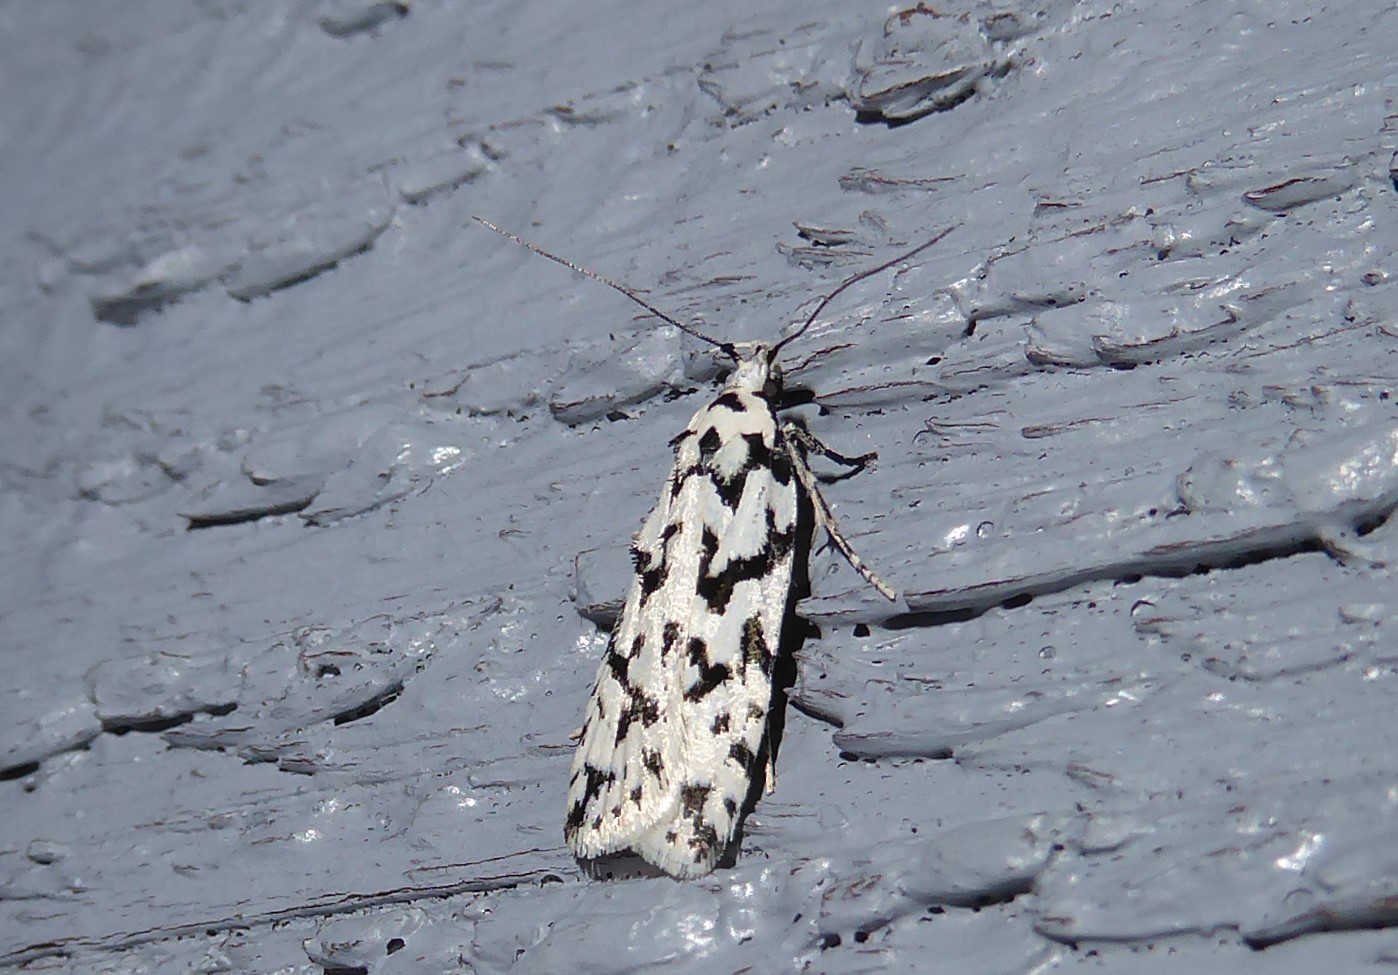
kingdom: Animalia
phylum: Arthropoda
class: Insecta
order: Lepidoptera
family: Oecophoridae
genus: Izatha
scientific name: Izatha katadiktya
